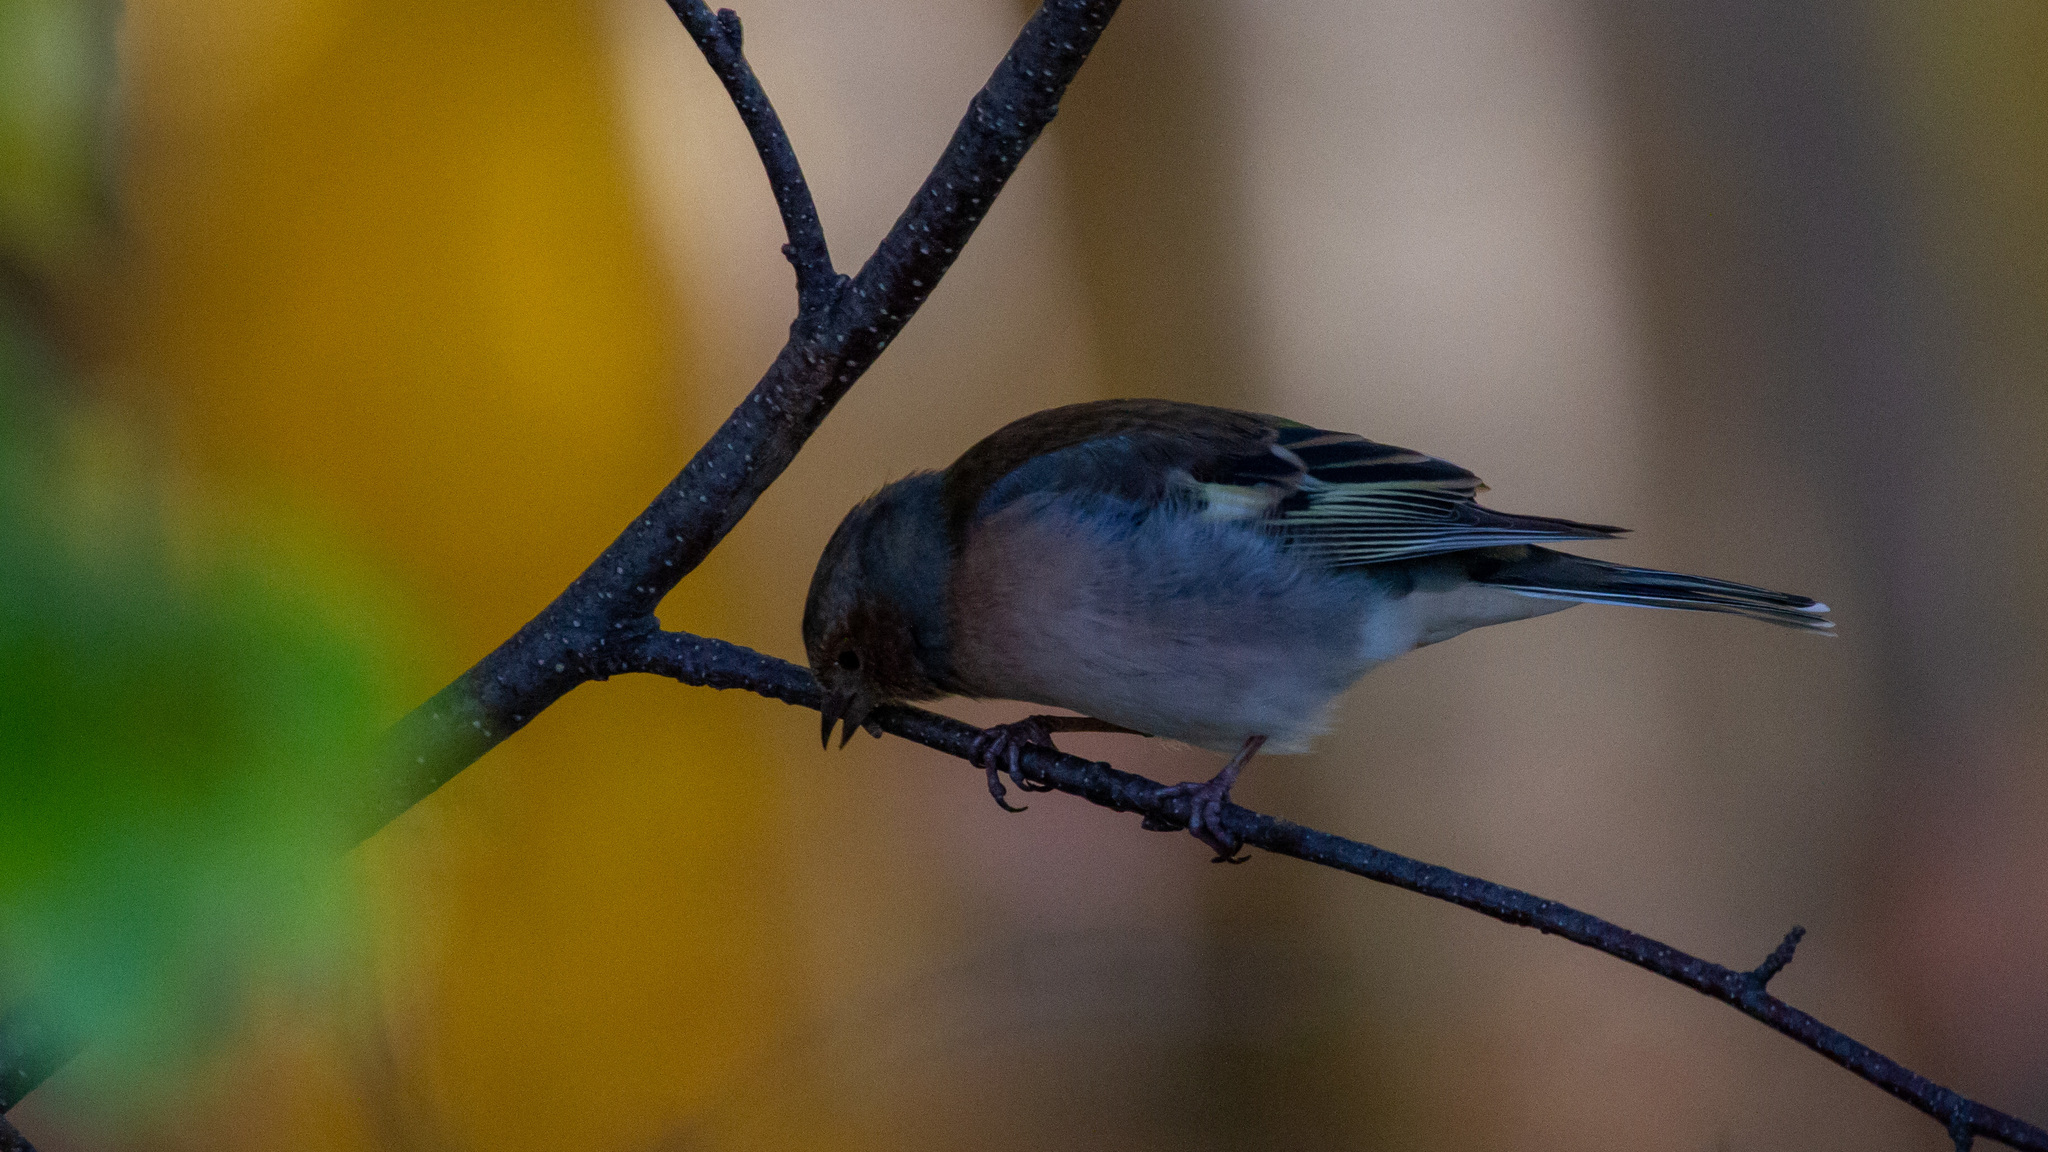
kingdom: Animalia
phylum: Chordata
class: Aves
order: Passeriformes
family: Fringillidae
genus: Fringilla
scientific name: Fringilla coelebs
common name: Common chaffinch
